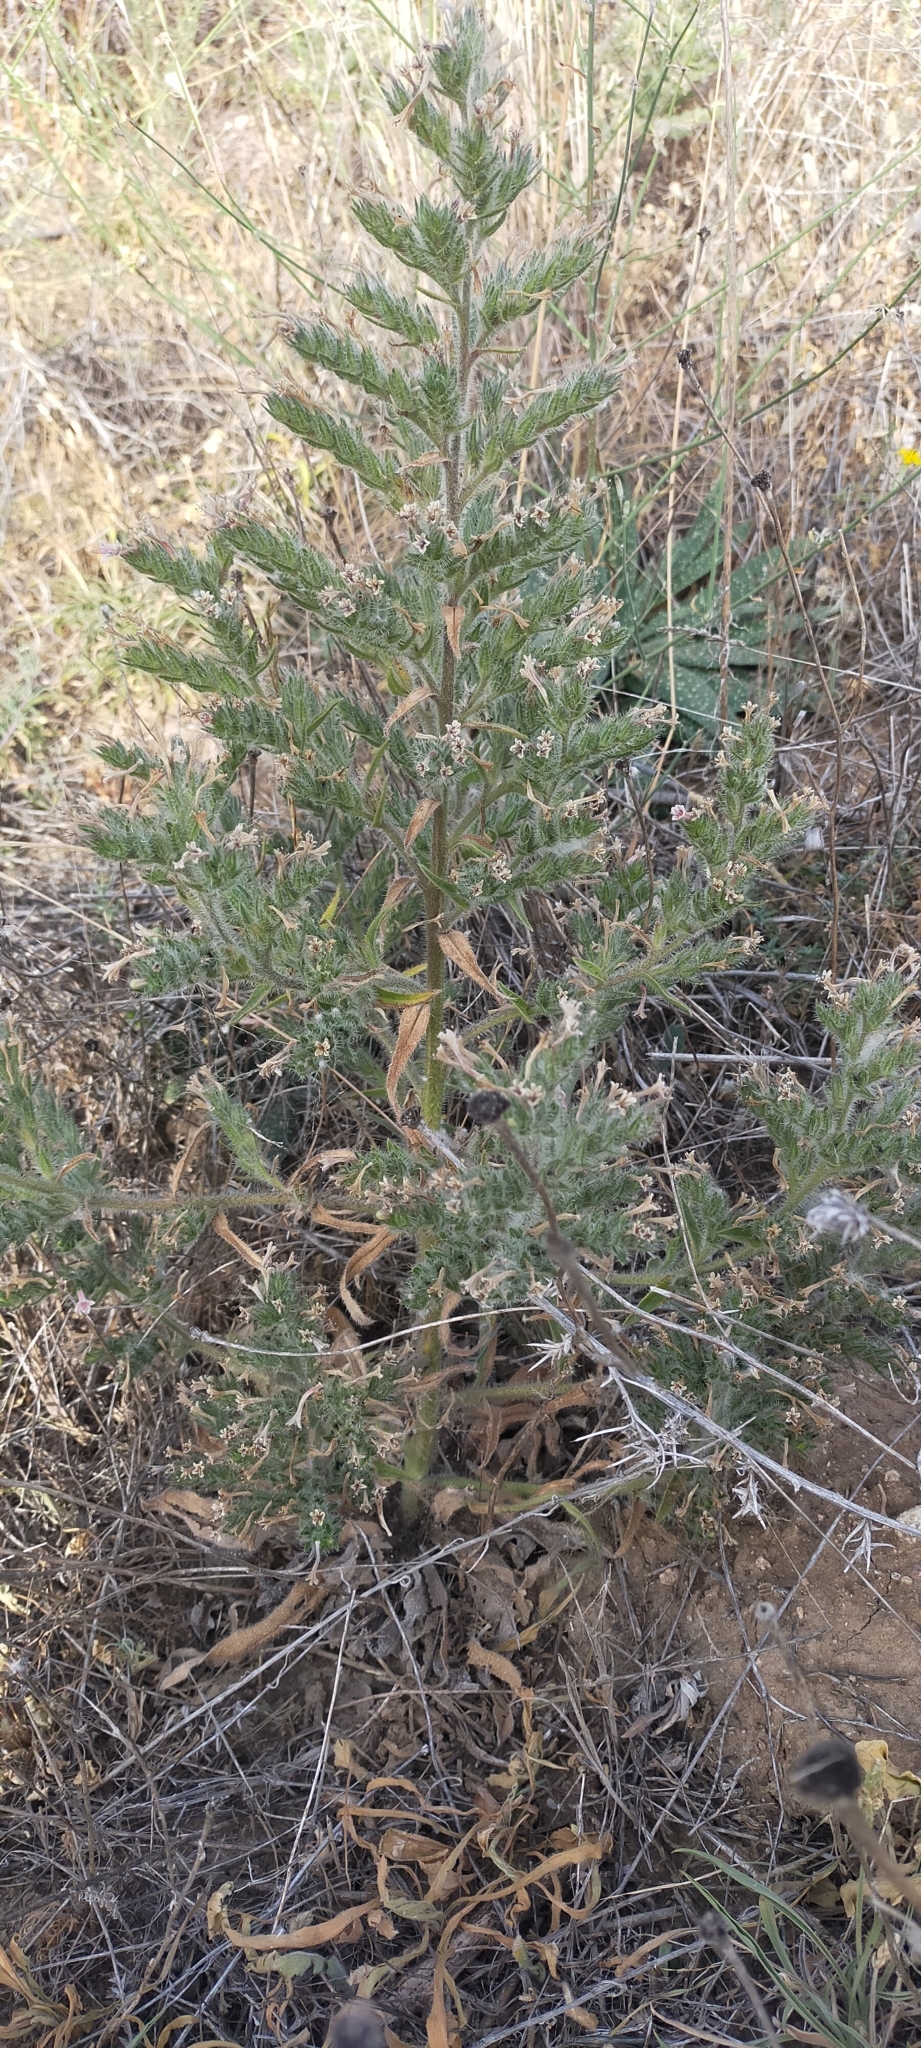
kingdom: Plantae
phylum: Tracheophyta
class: Magnoliopsida
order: Boraginales
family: Boraginaceae
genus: Echium
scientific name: Echium asperrimum
